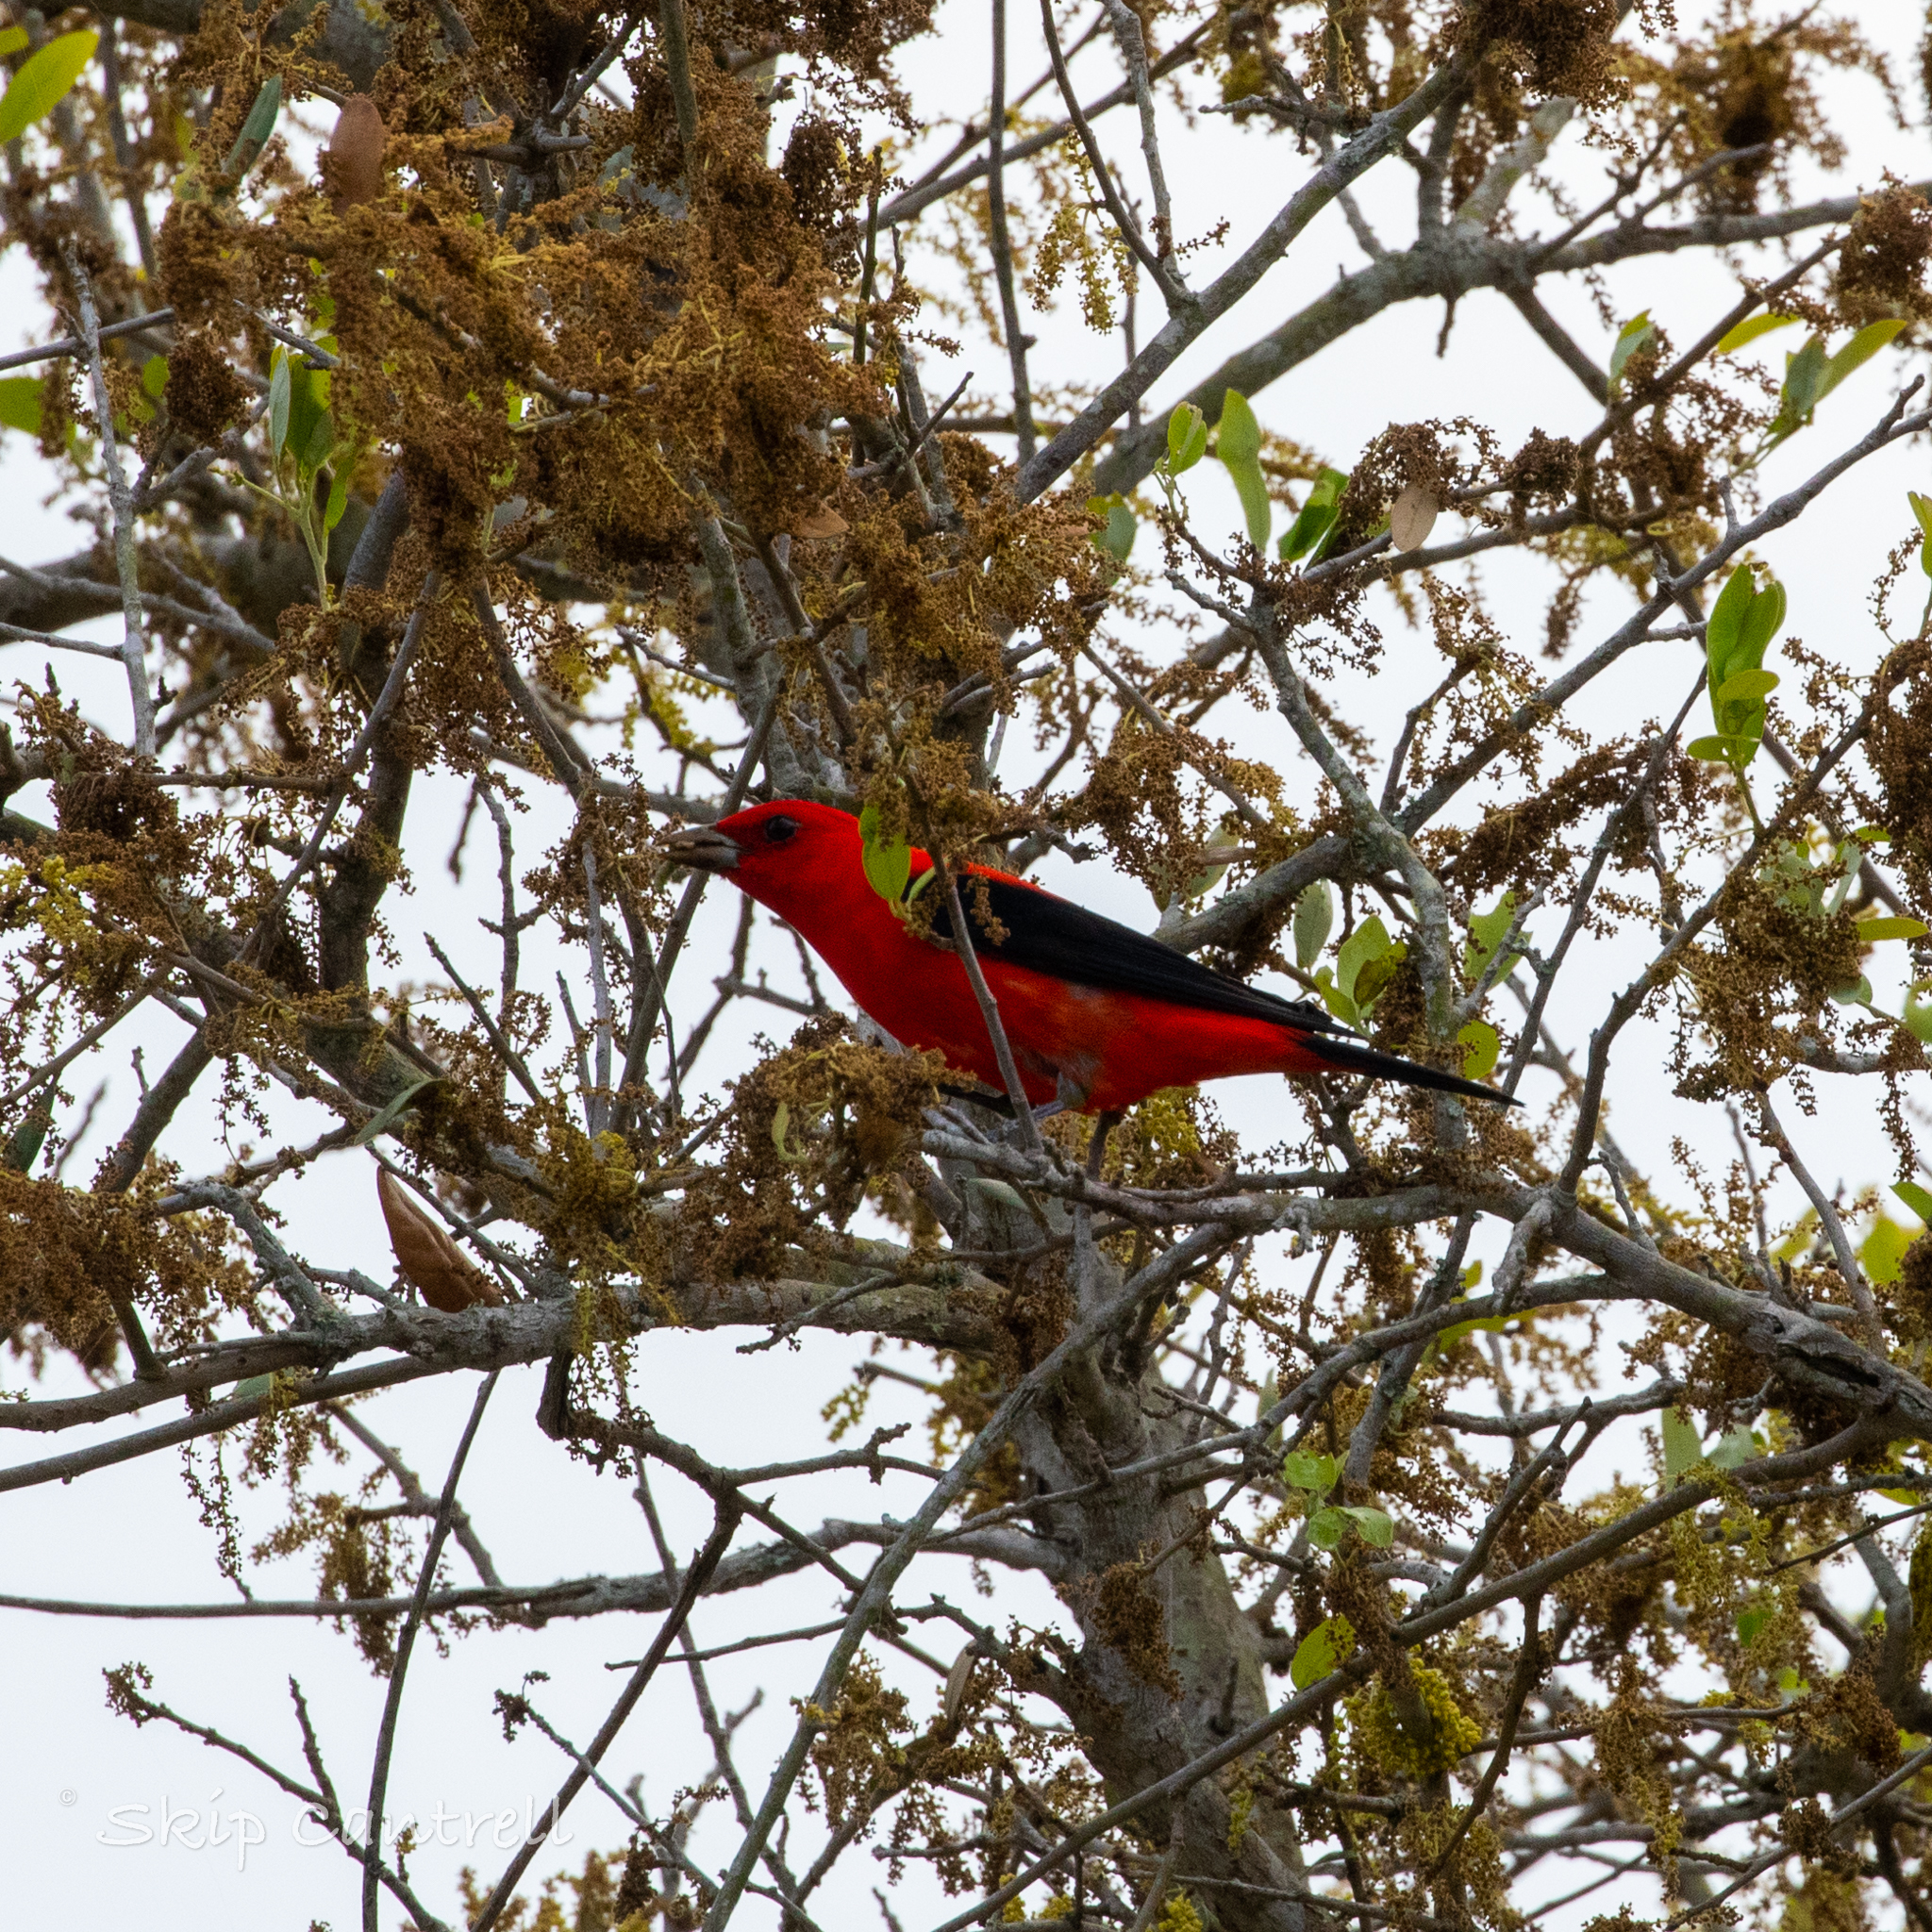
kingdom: Animalia
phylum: Chordata
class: Aves
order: Passeriformes
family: Cardinalidae
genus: Piranga
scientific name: Piranga olivacea
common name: Scarlet tanager
